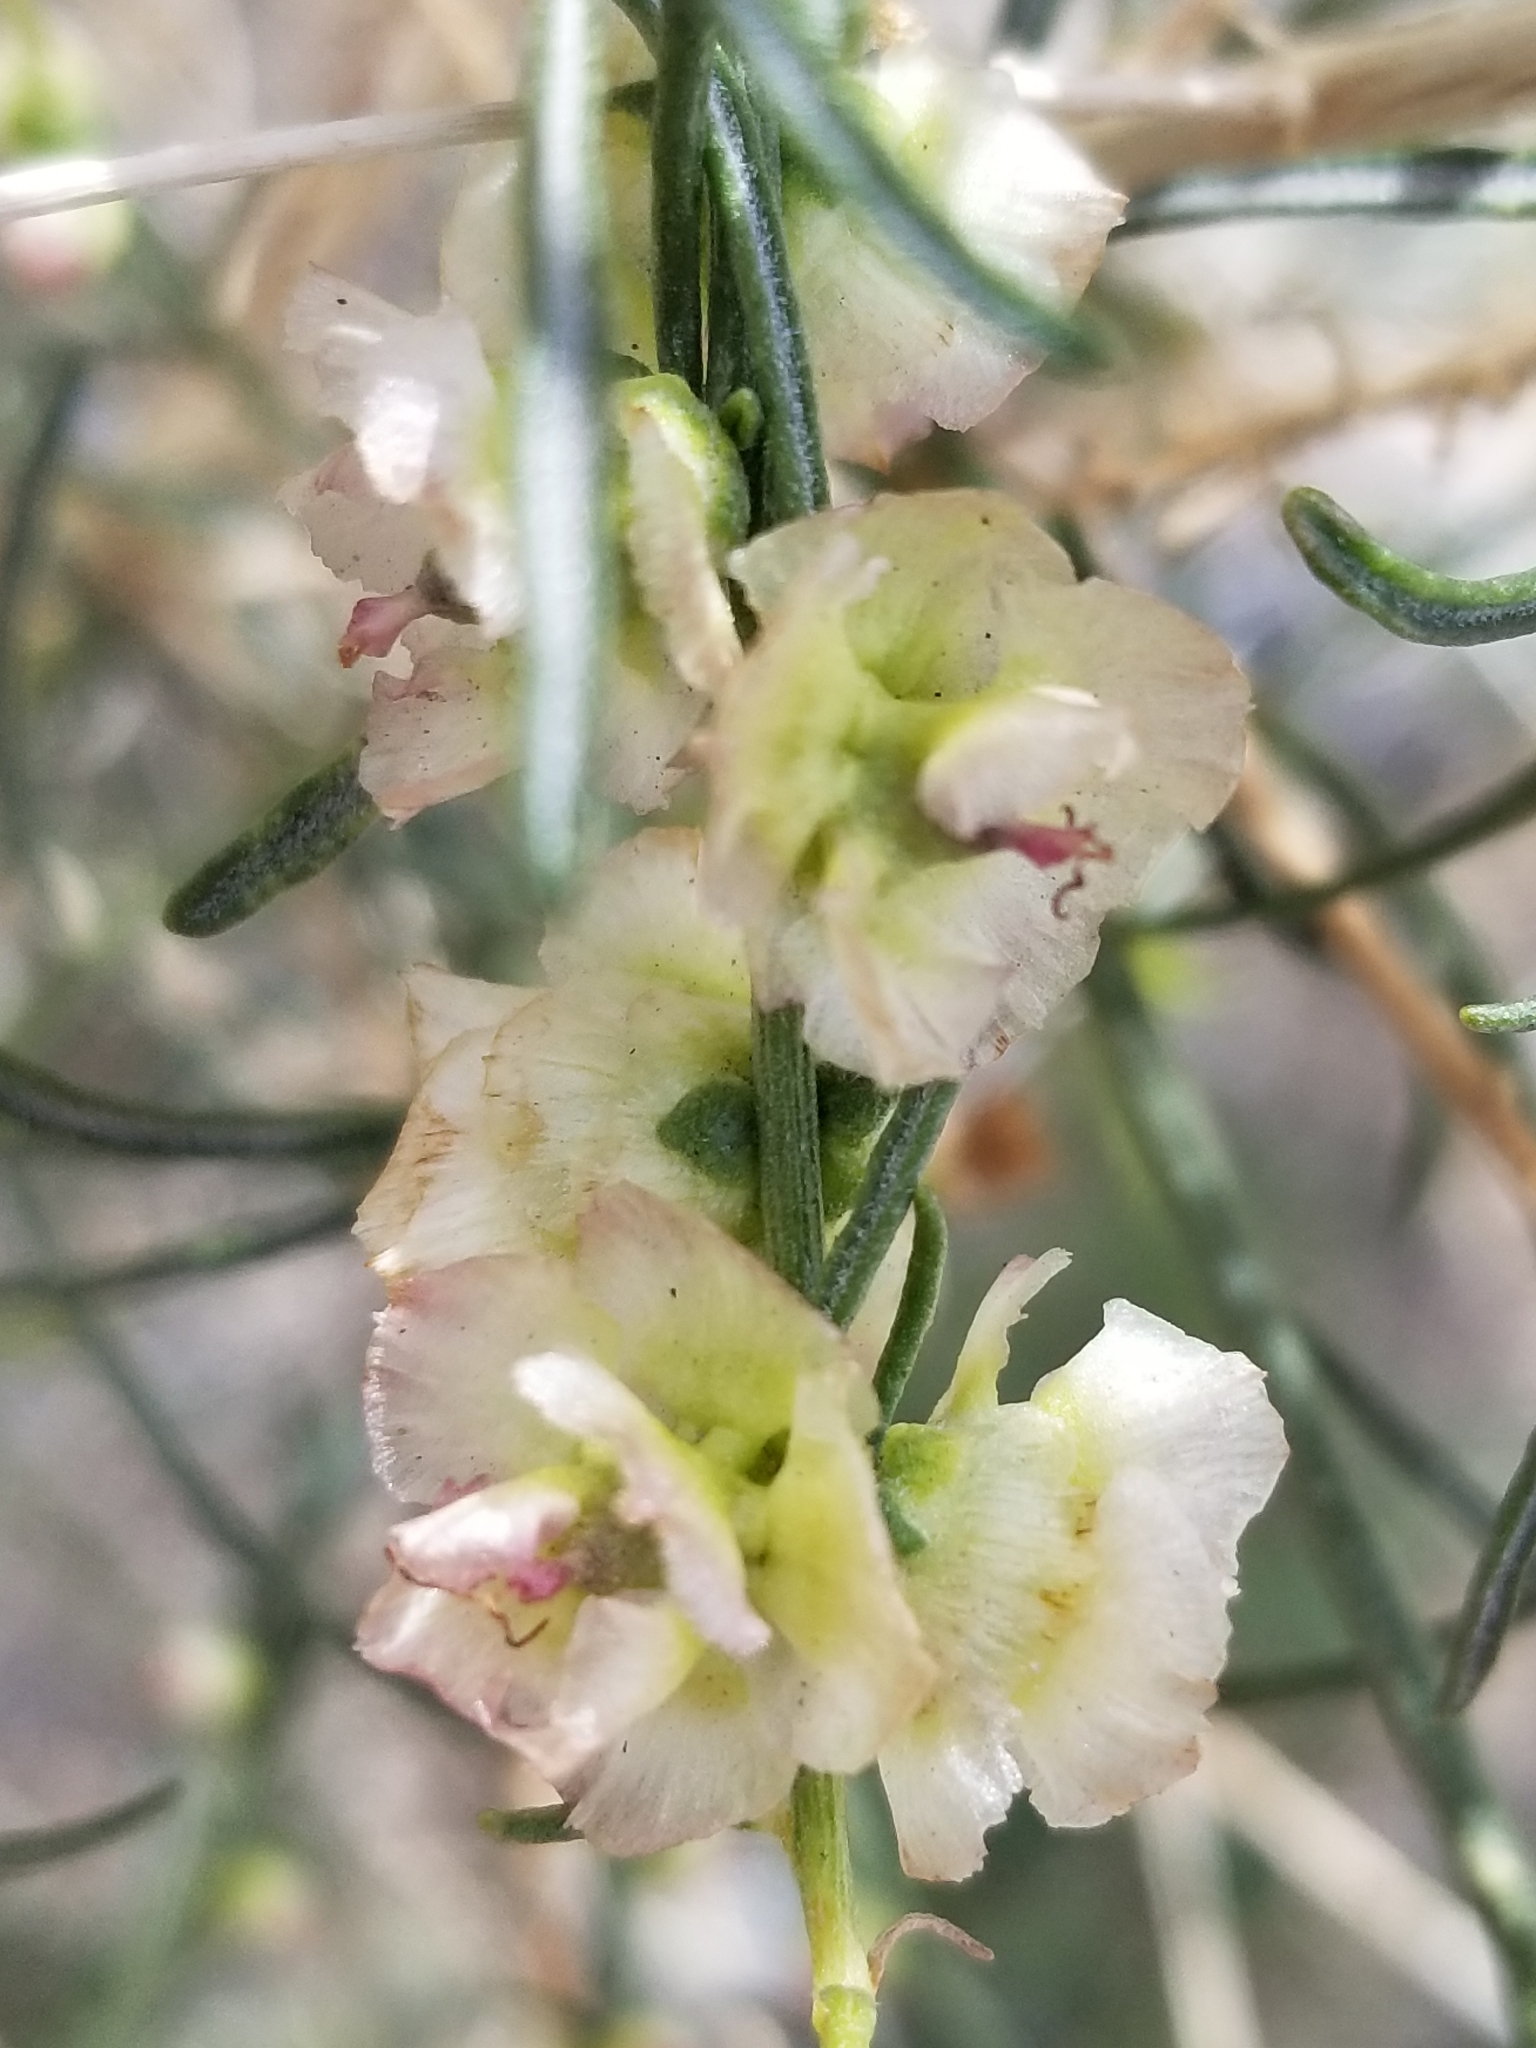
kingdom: Plantae
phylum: Tracheophyta
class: Magnoliopsida
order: Asterales
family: Asteraceae
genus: Ambrosia
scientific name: Ambrosia salsola
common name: Burrobrush
